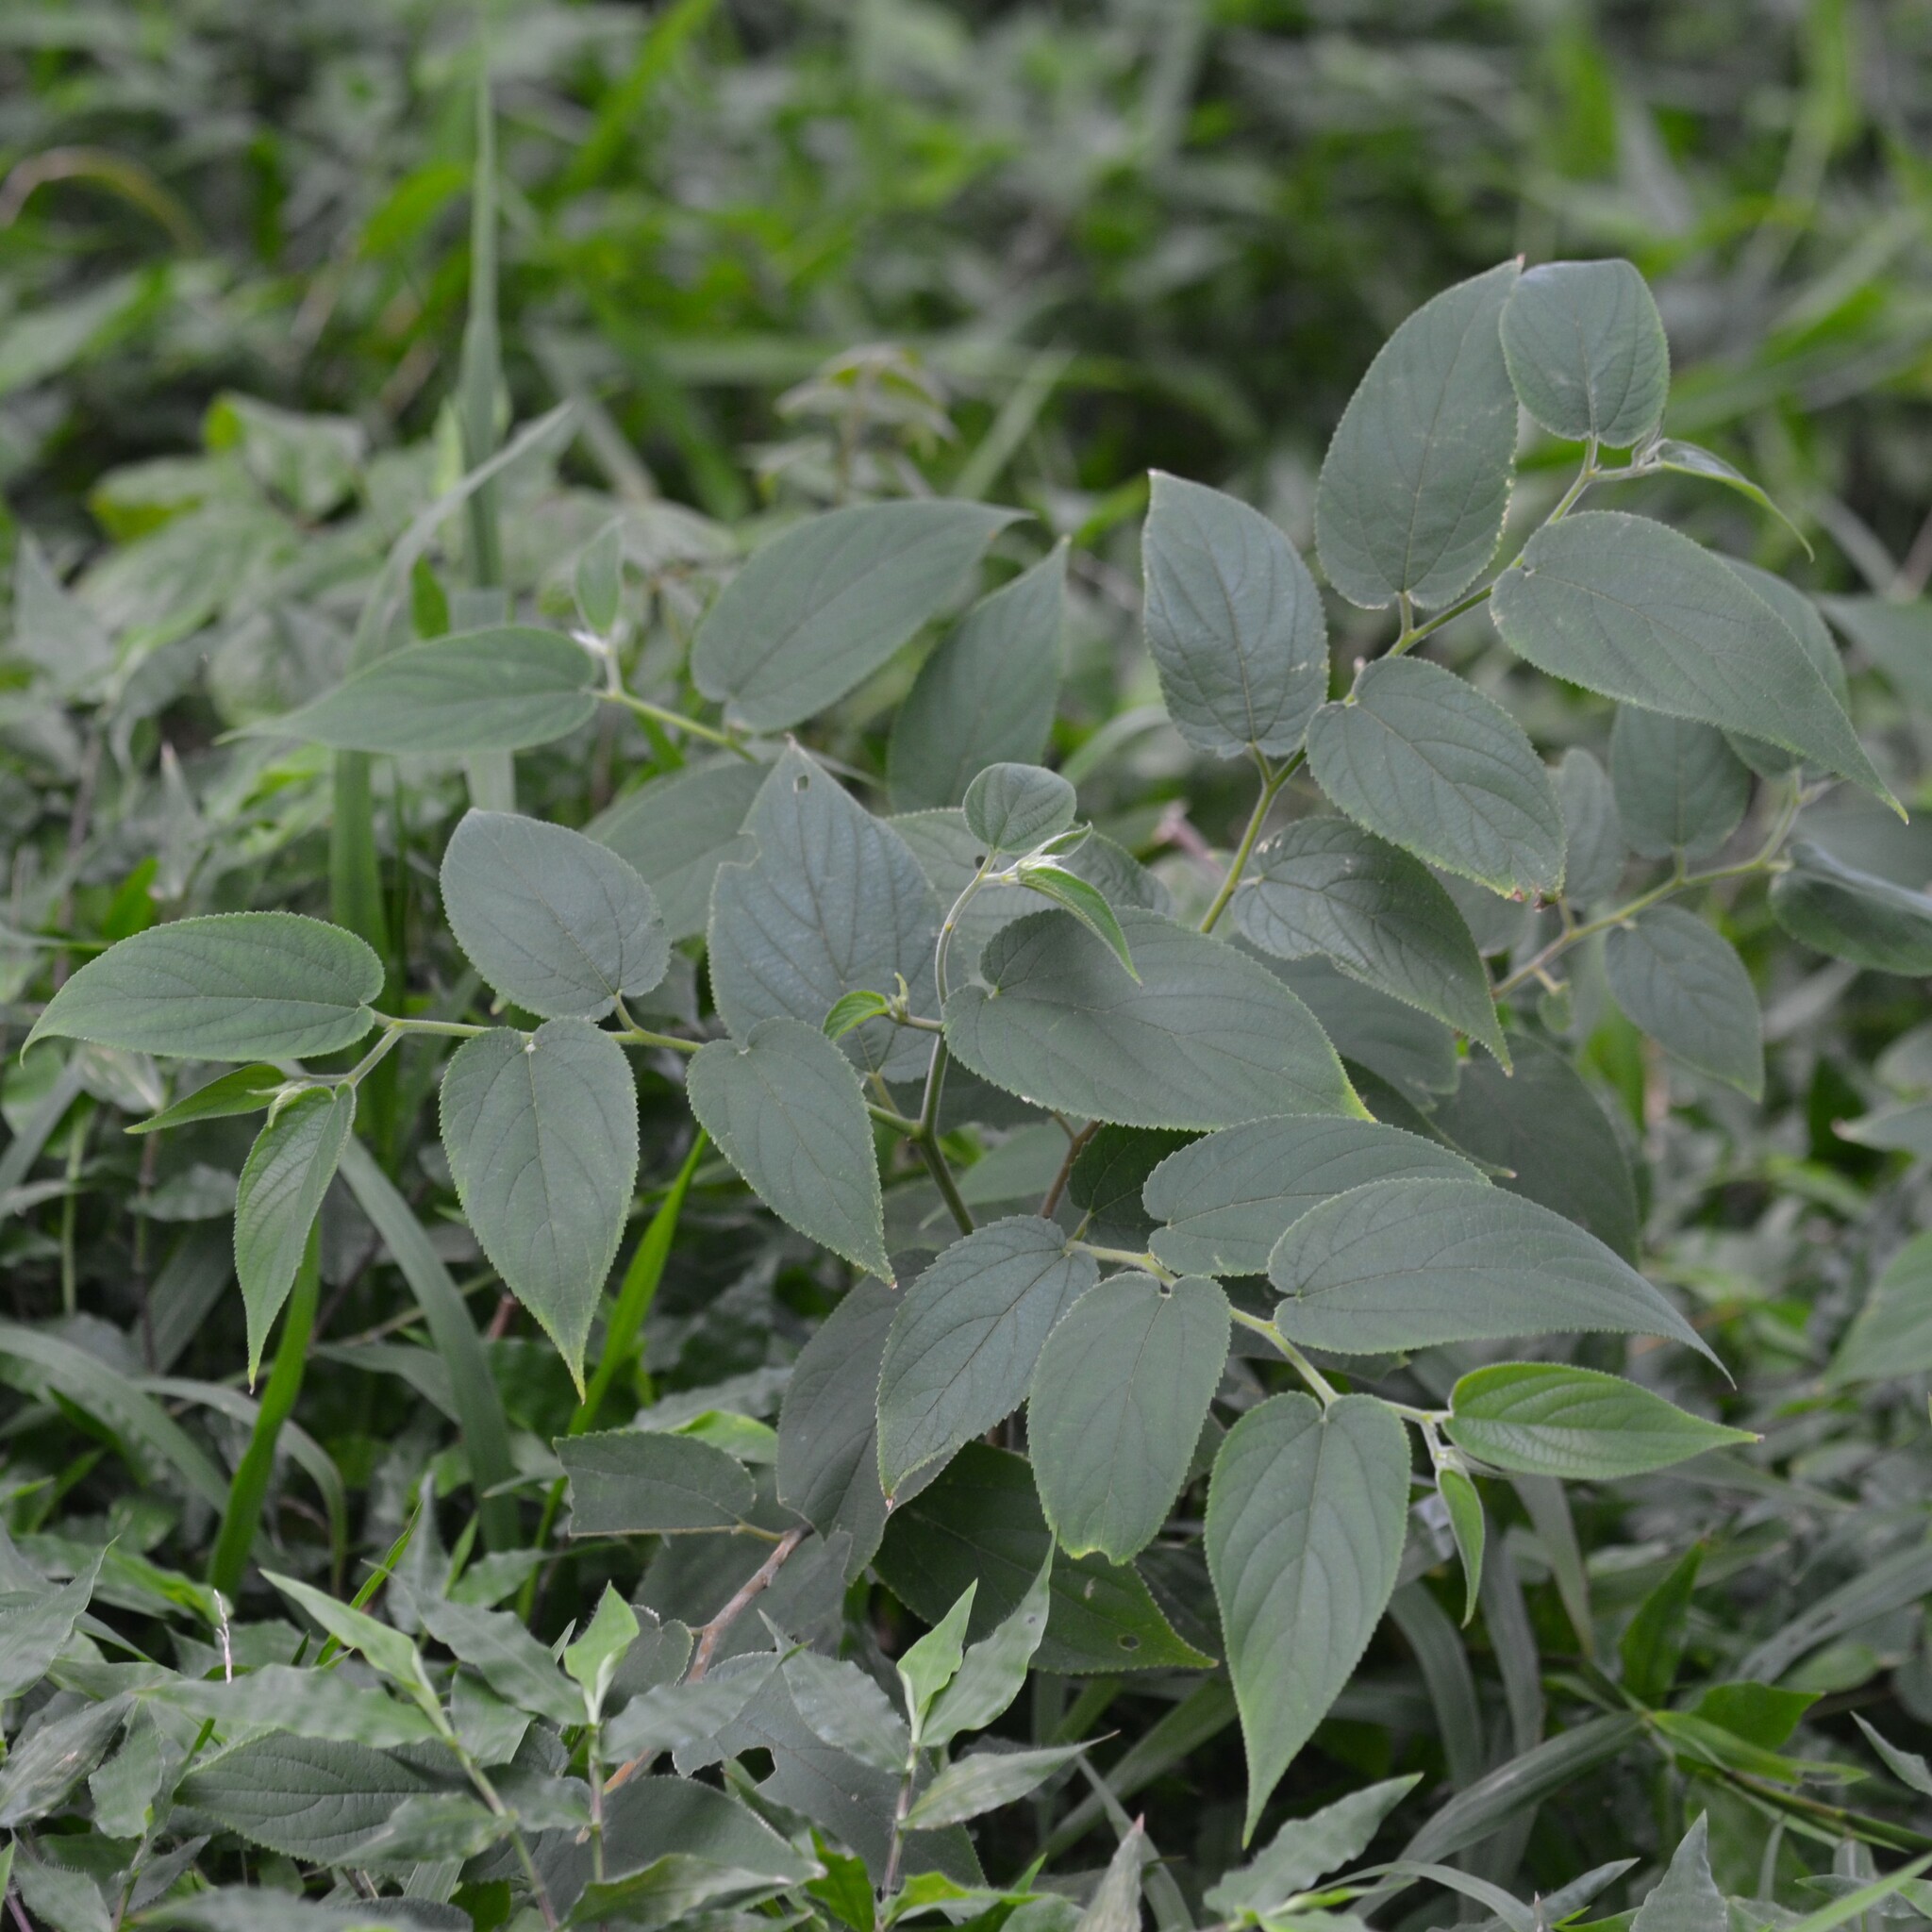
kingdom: Plantae
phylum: Tracheophyta
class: Magnoliopsida
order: Rosales
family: Cannabaceae
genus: Trema
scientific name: Trema orientale
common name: Indian charcoal tree
